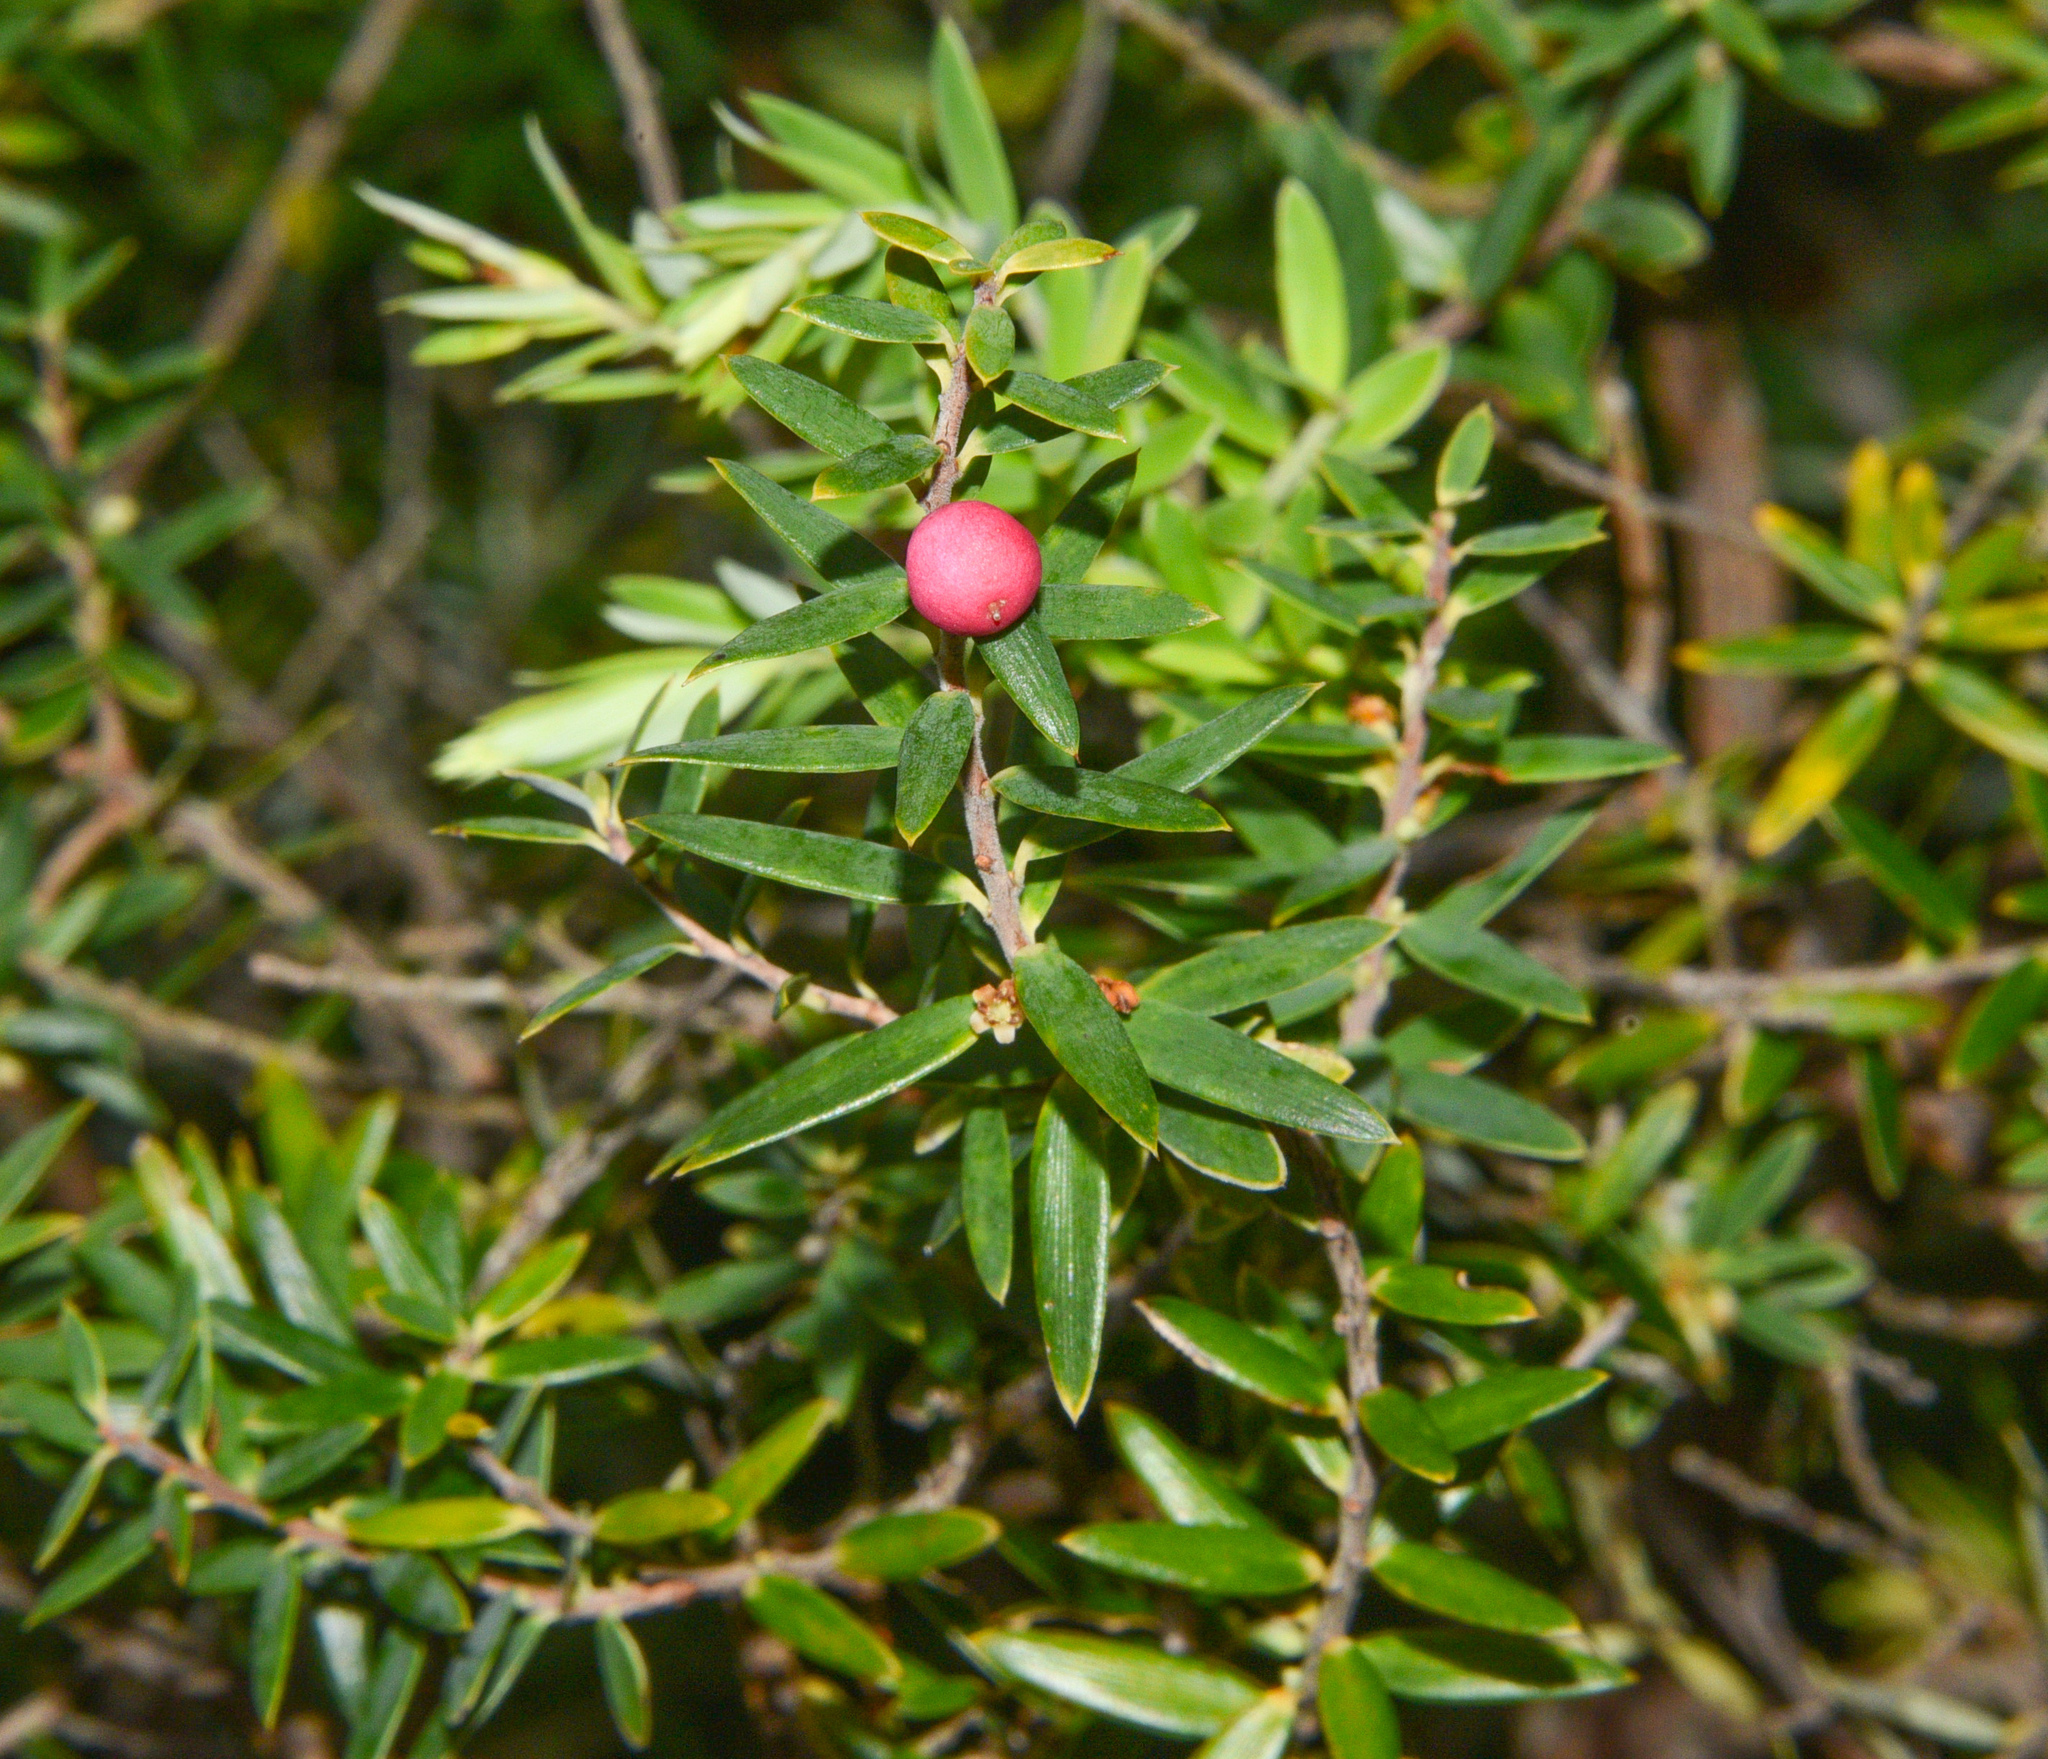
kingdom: Plantae
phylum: Tracheophyta
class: Magnoliopsida
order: Ericales
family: Ericaceae
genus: Leptecophylla
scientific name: Leptecophylla tameiameiae
